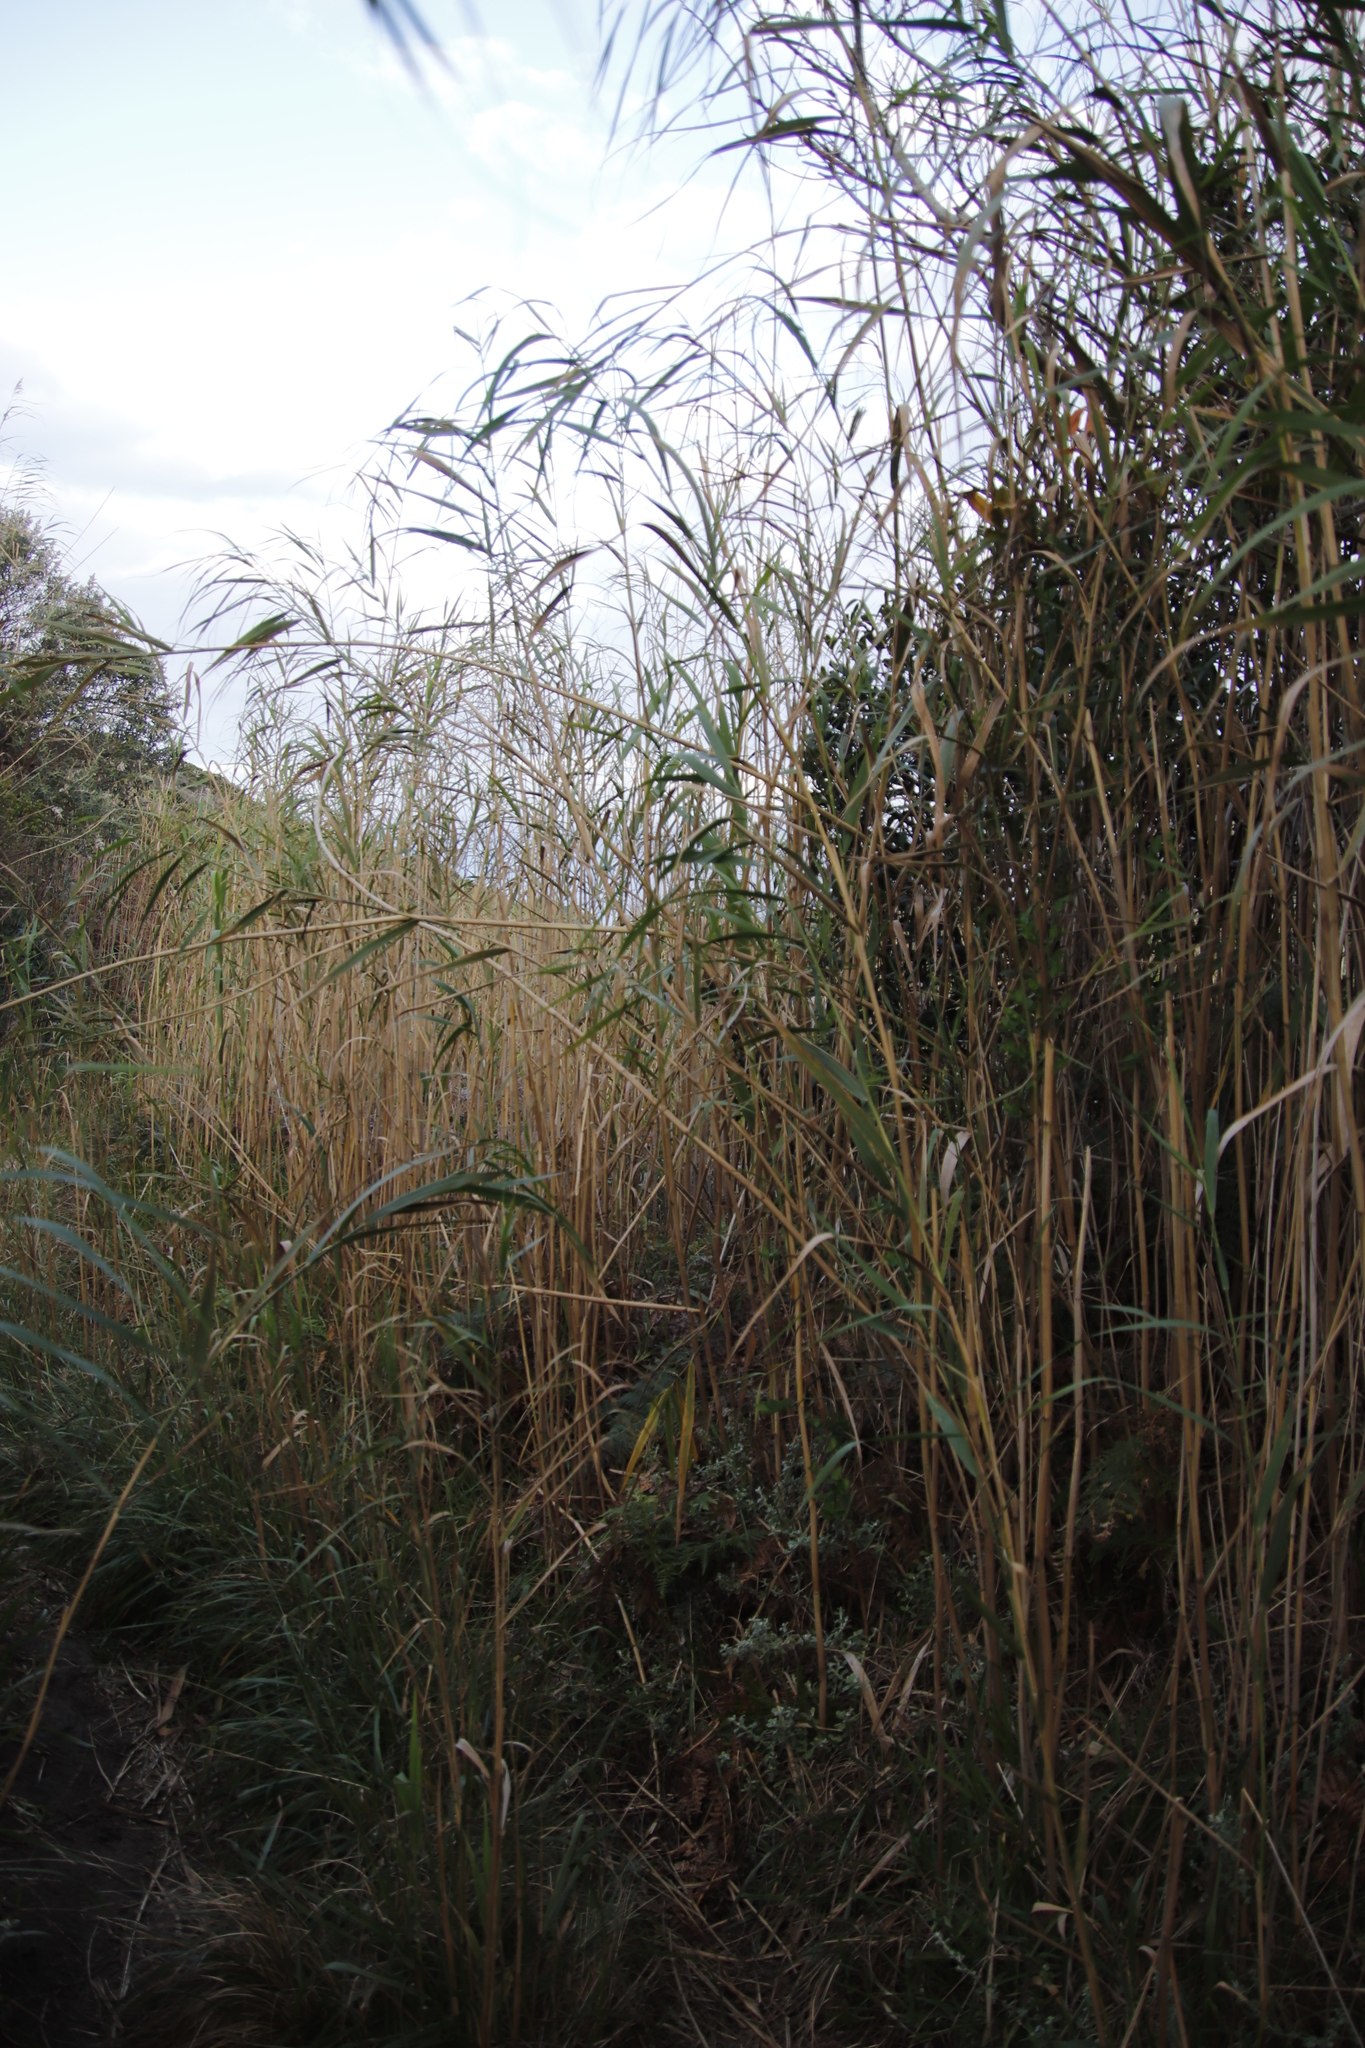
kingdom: Plantae
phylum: Tracheophyta
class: Liliopsida
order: Poales
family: Poaceae
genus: Phragmites
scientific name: Phragmites australis
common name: Common reed
